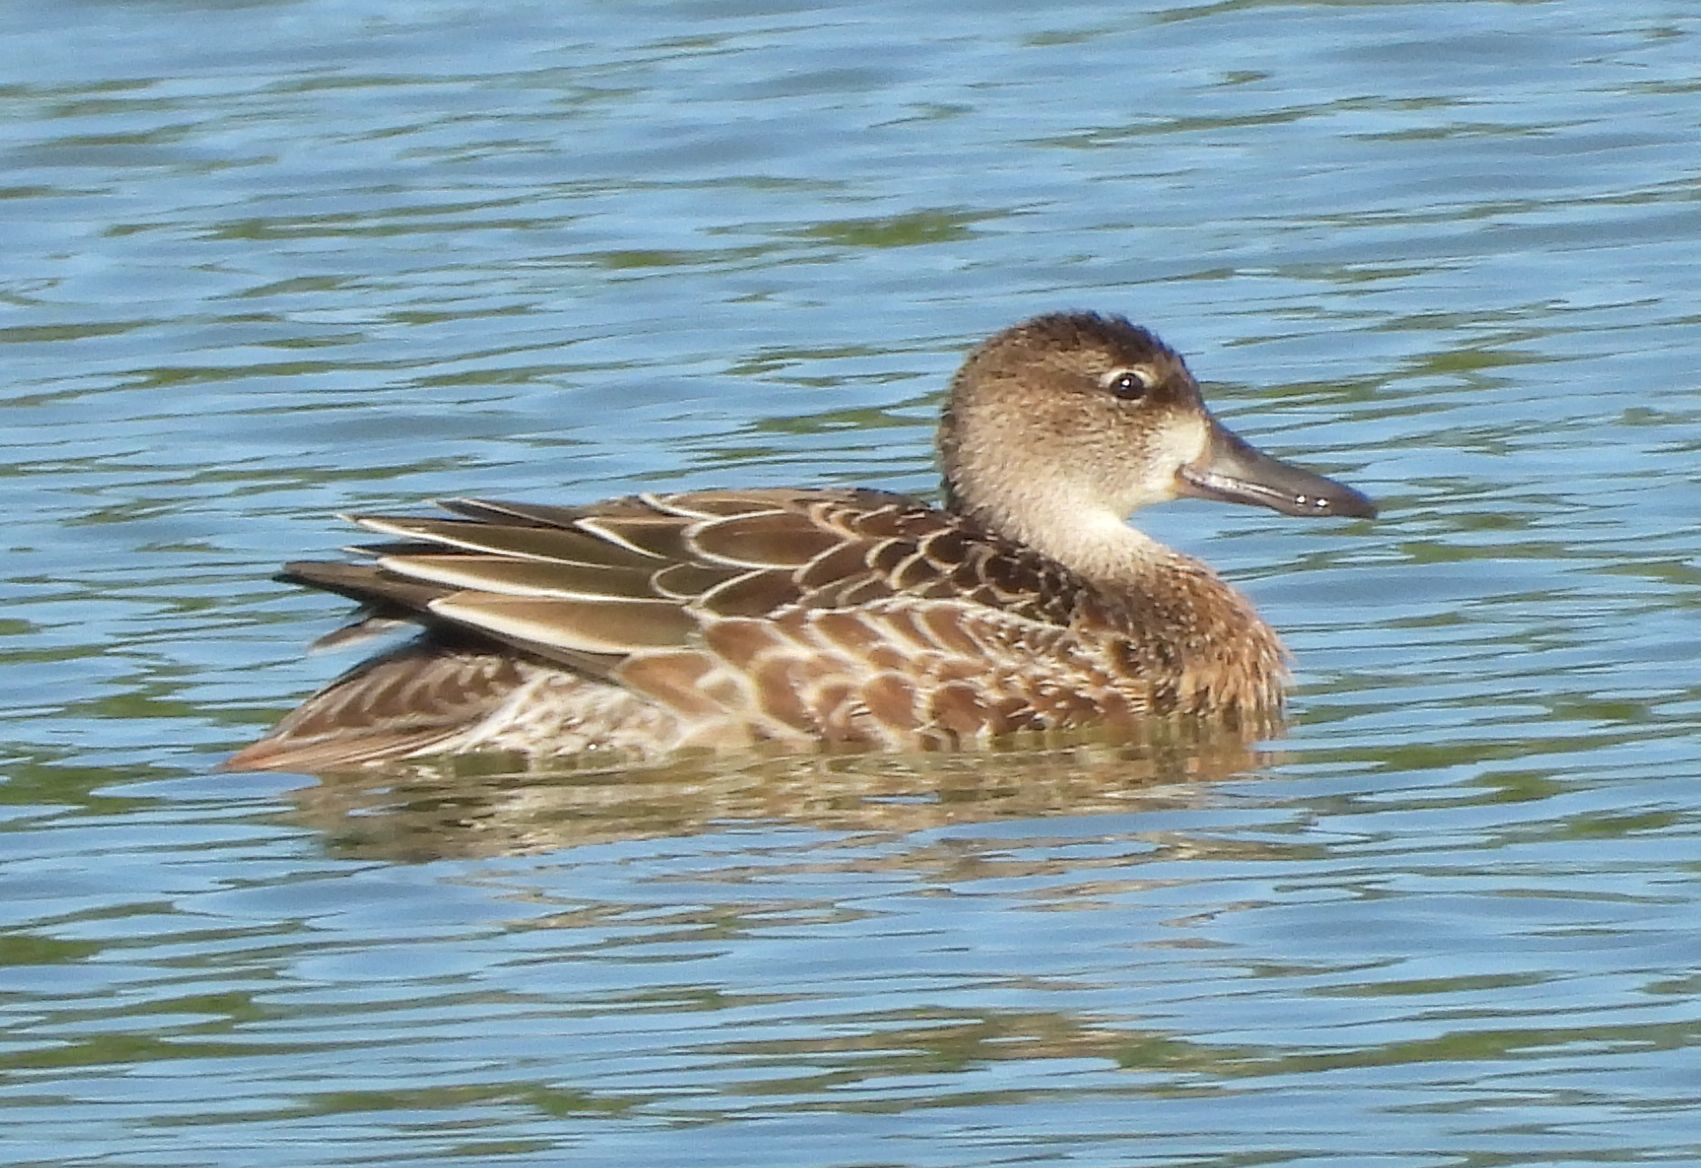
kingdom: Animalia
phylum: Chordata
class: Aves
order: Anseriformes
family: Anatidae
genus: Spatula
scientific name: Spatula discors
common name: Blue-winged teal
